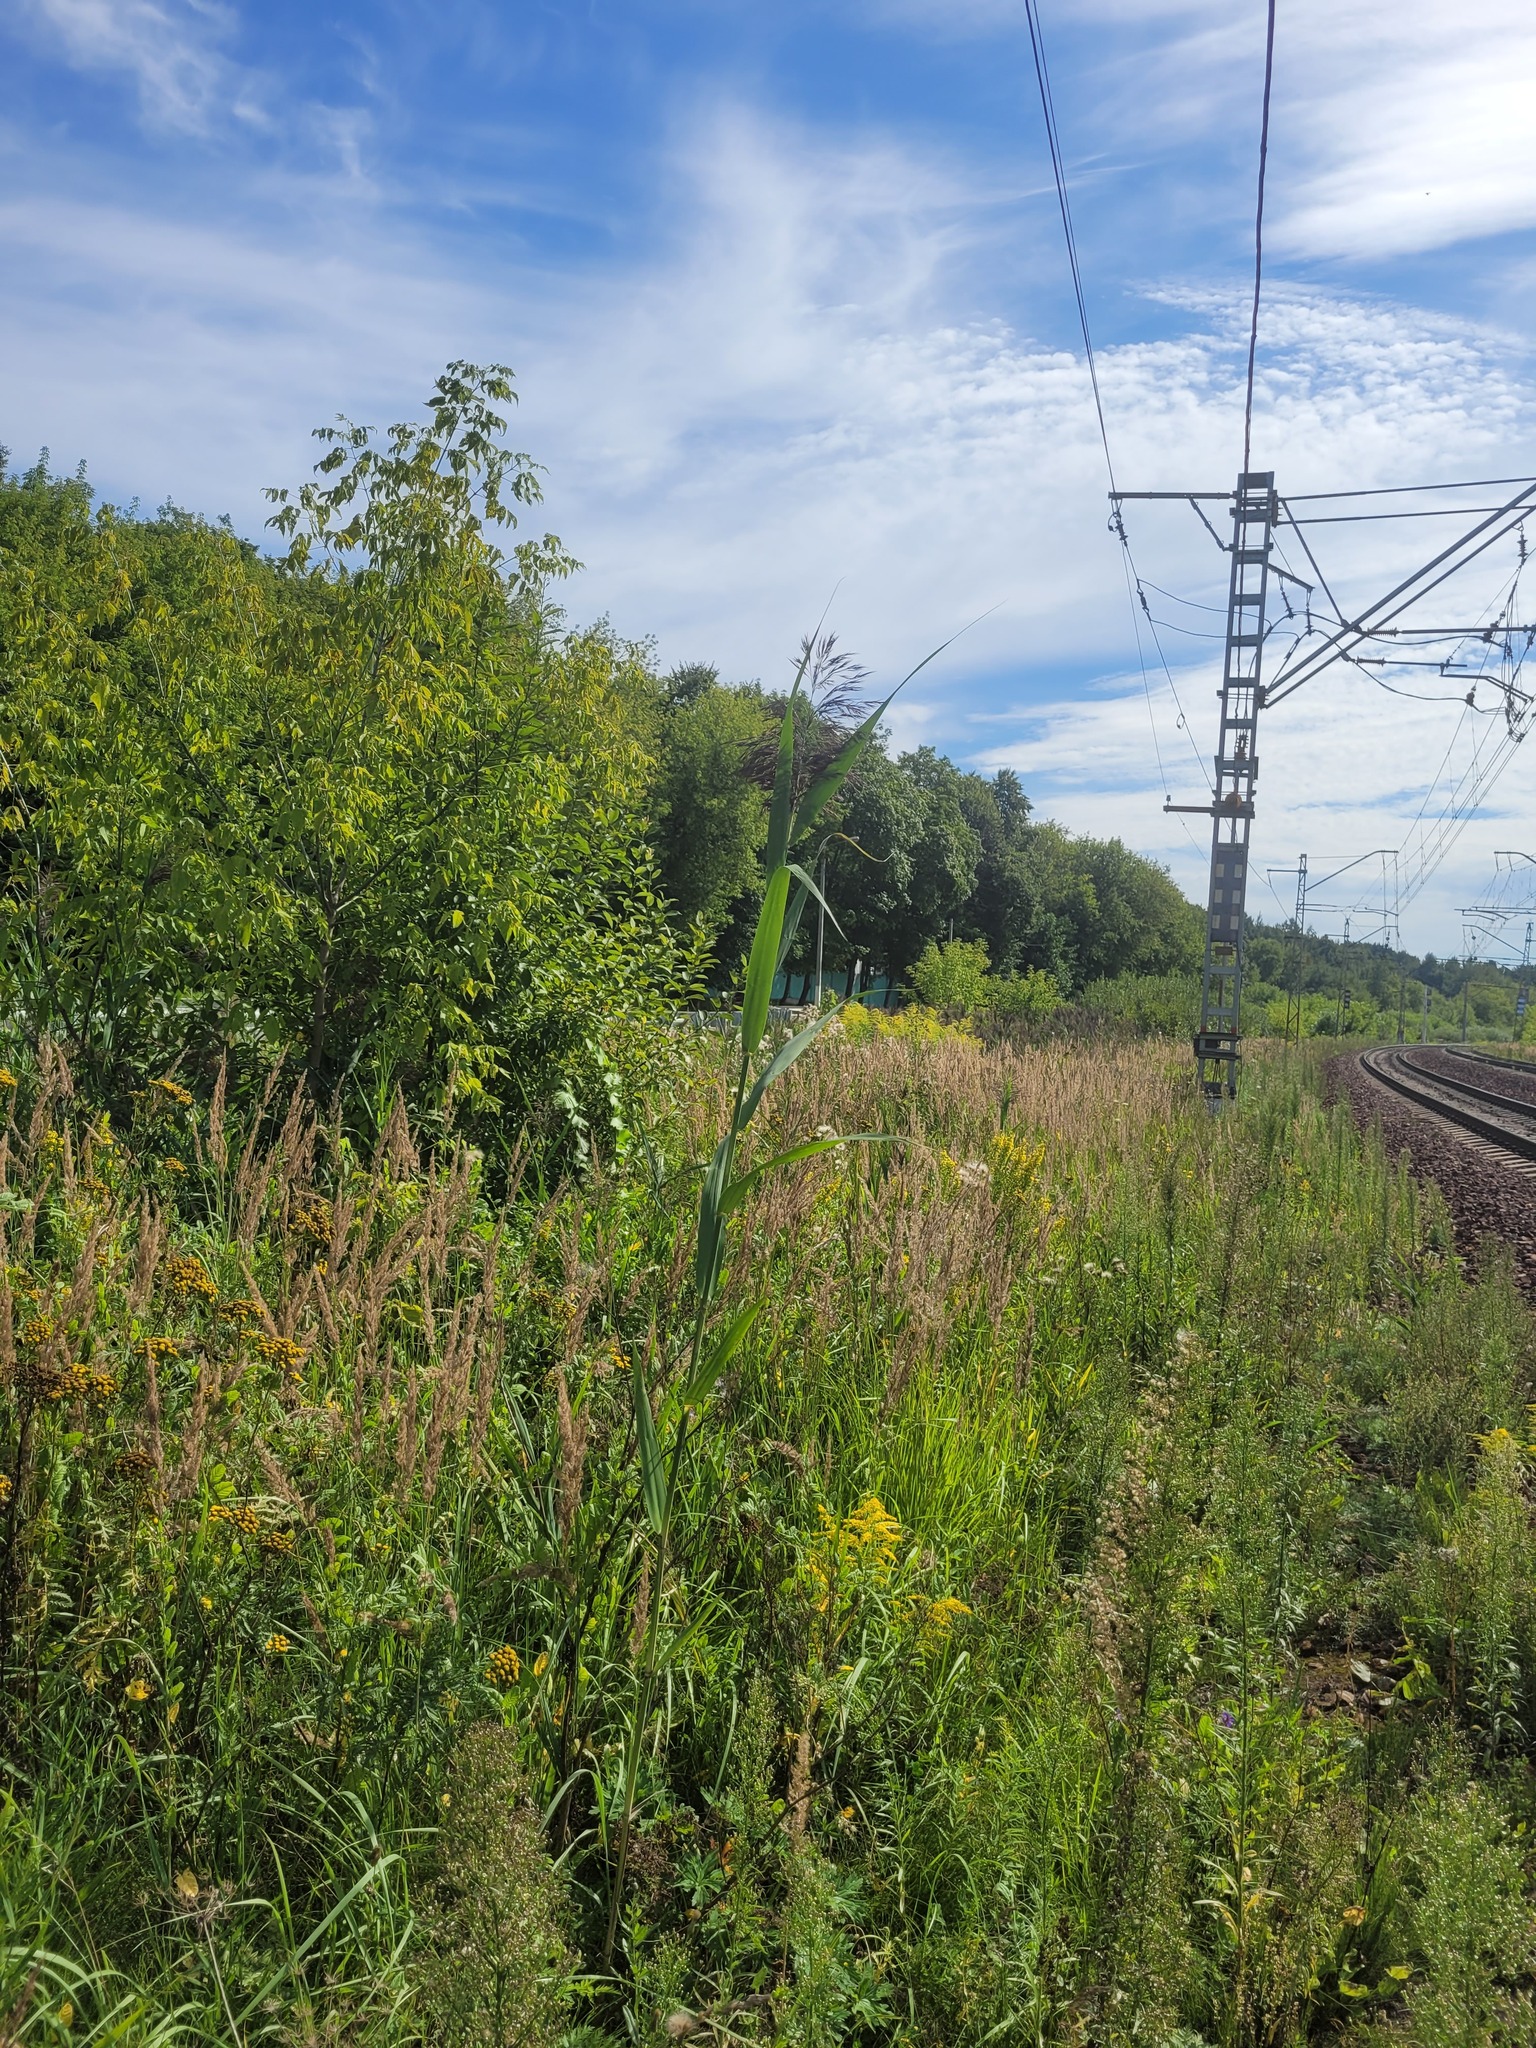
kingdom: Plantae
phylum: Tracheophyta
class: Liliopsida
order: Poales
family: Poaceae
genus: Phragmites
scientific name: Phragmites australis
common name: Common reed
